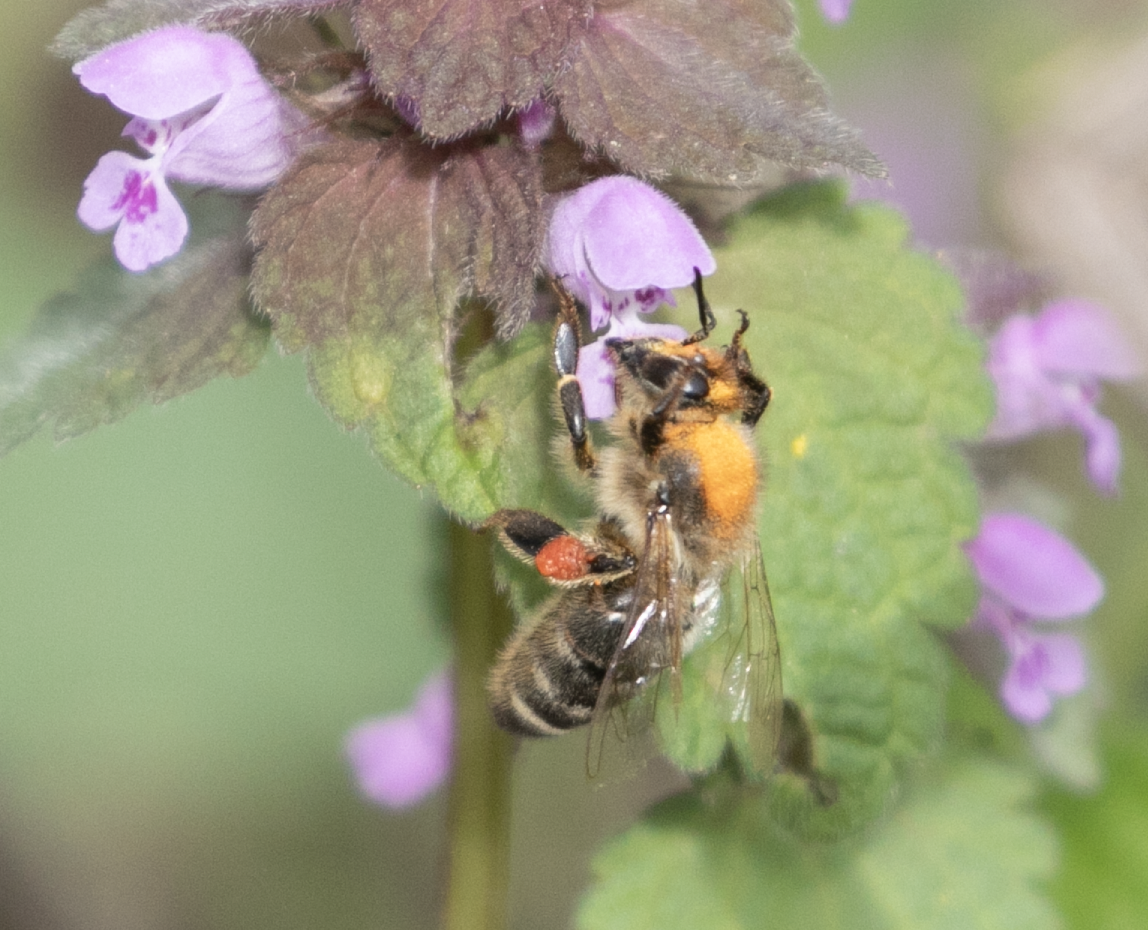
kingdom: Animalia
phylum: Arthropoda
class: Insecta
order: Hymenoptera
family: Apidae
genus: Apis
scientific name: Apis mellifera
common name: Honey bee
